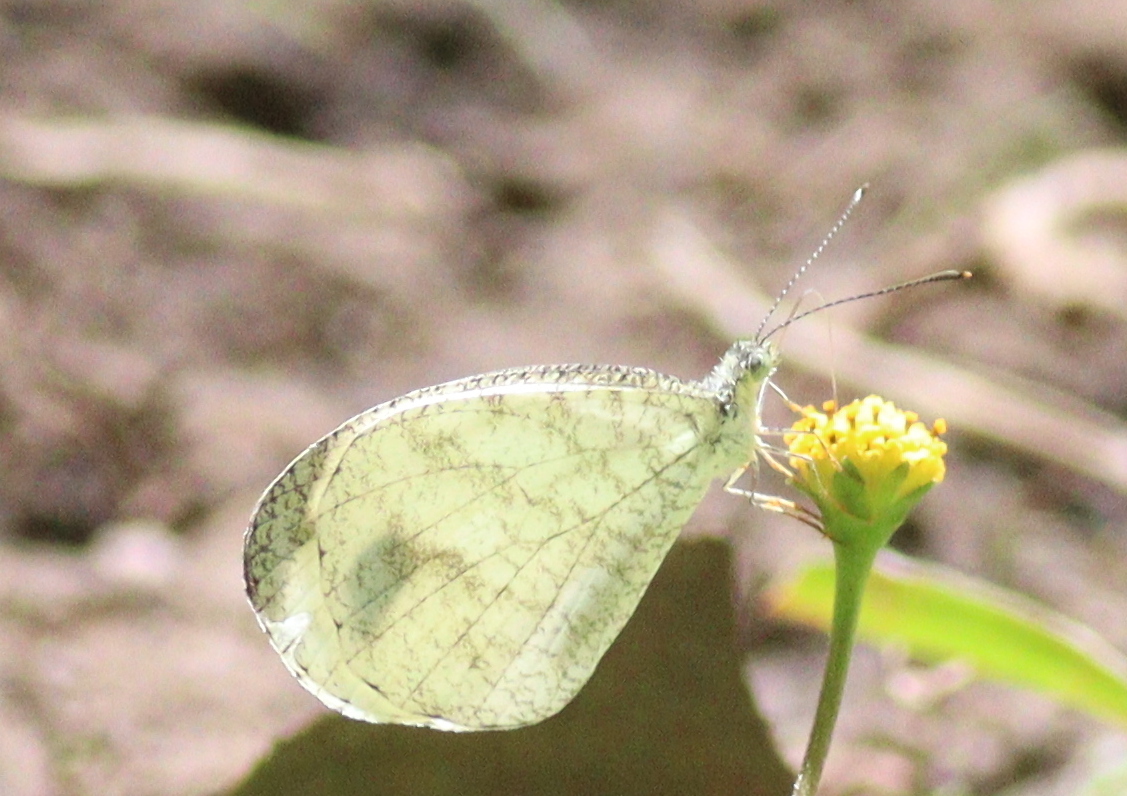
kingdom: Animalia
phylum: Arthropoda
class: Insecta
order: Lepidoptera
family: Pieridae
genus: Leptosia
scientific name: Leptosia nina
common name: Psyche
